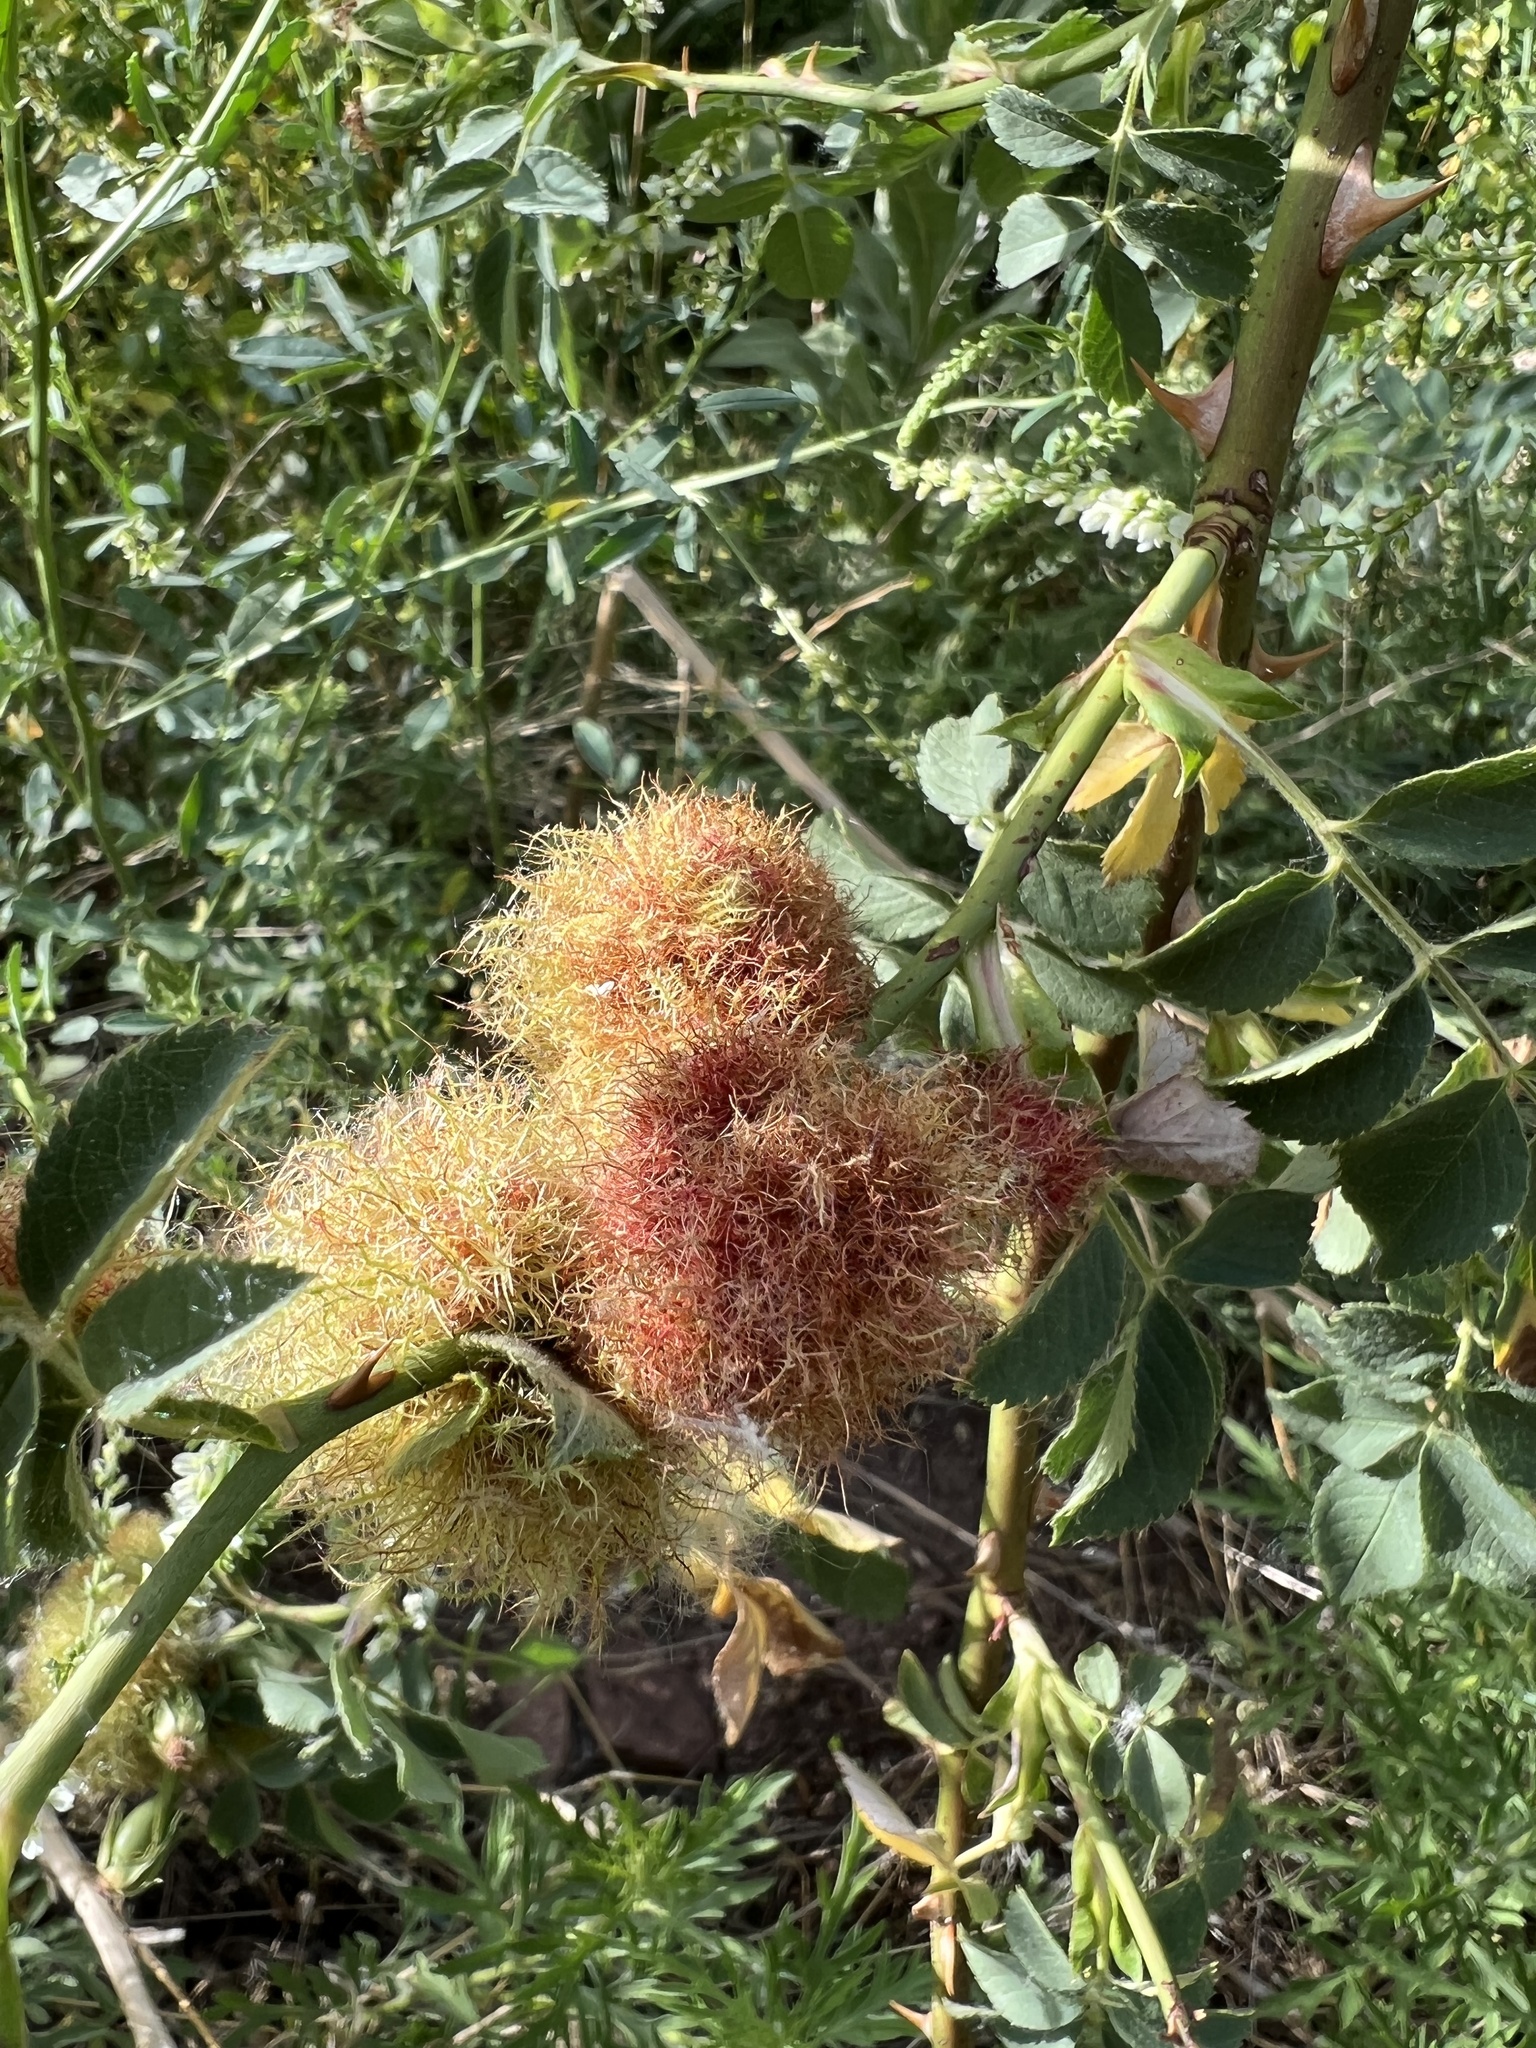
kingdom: Animalia
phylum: Arthropoda
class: Insecta
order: Hymenoptera
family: Cynipidae
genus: Diplolepis
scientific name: Diplolepis rosae
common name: Bedeguar gall
